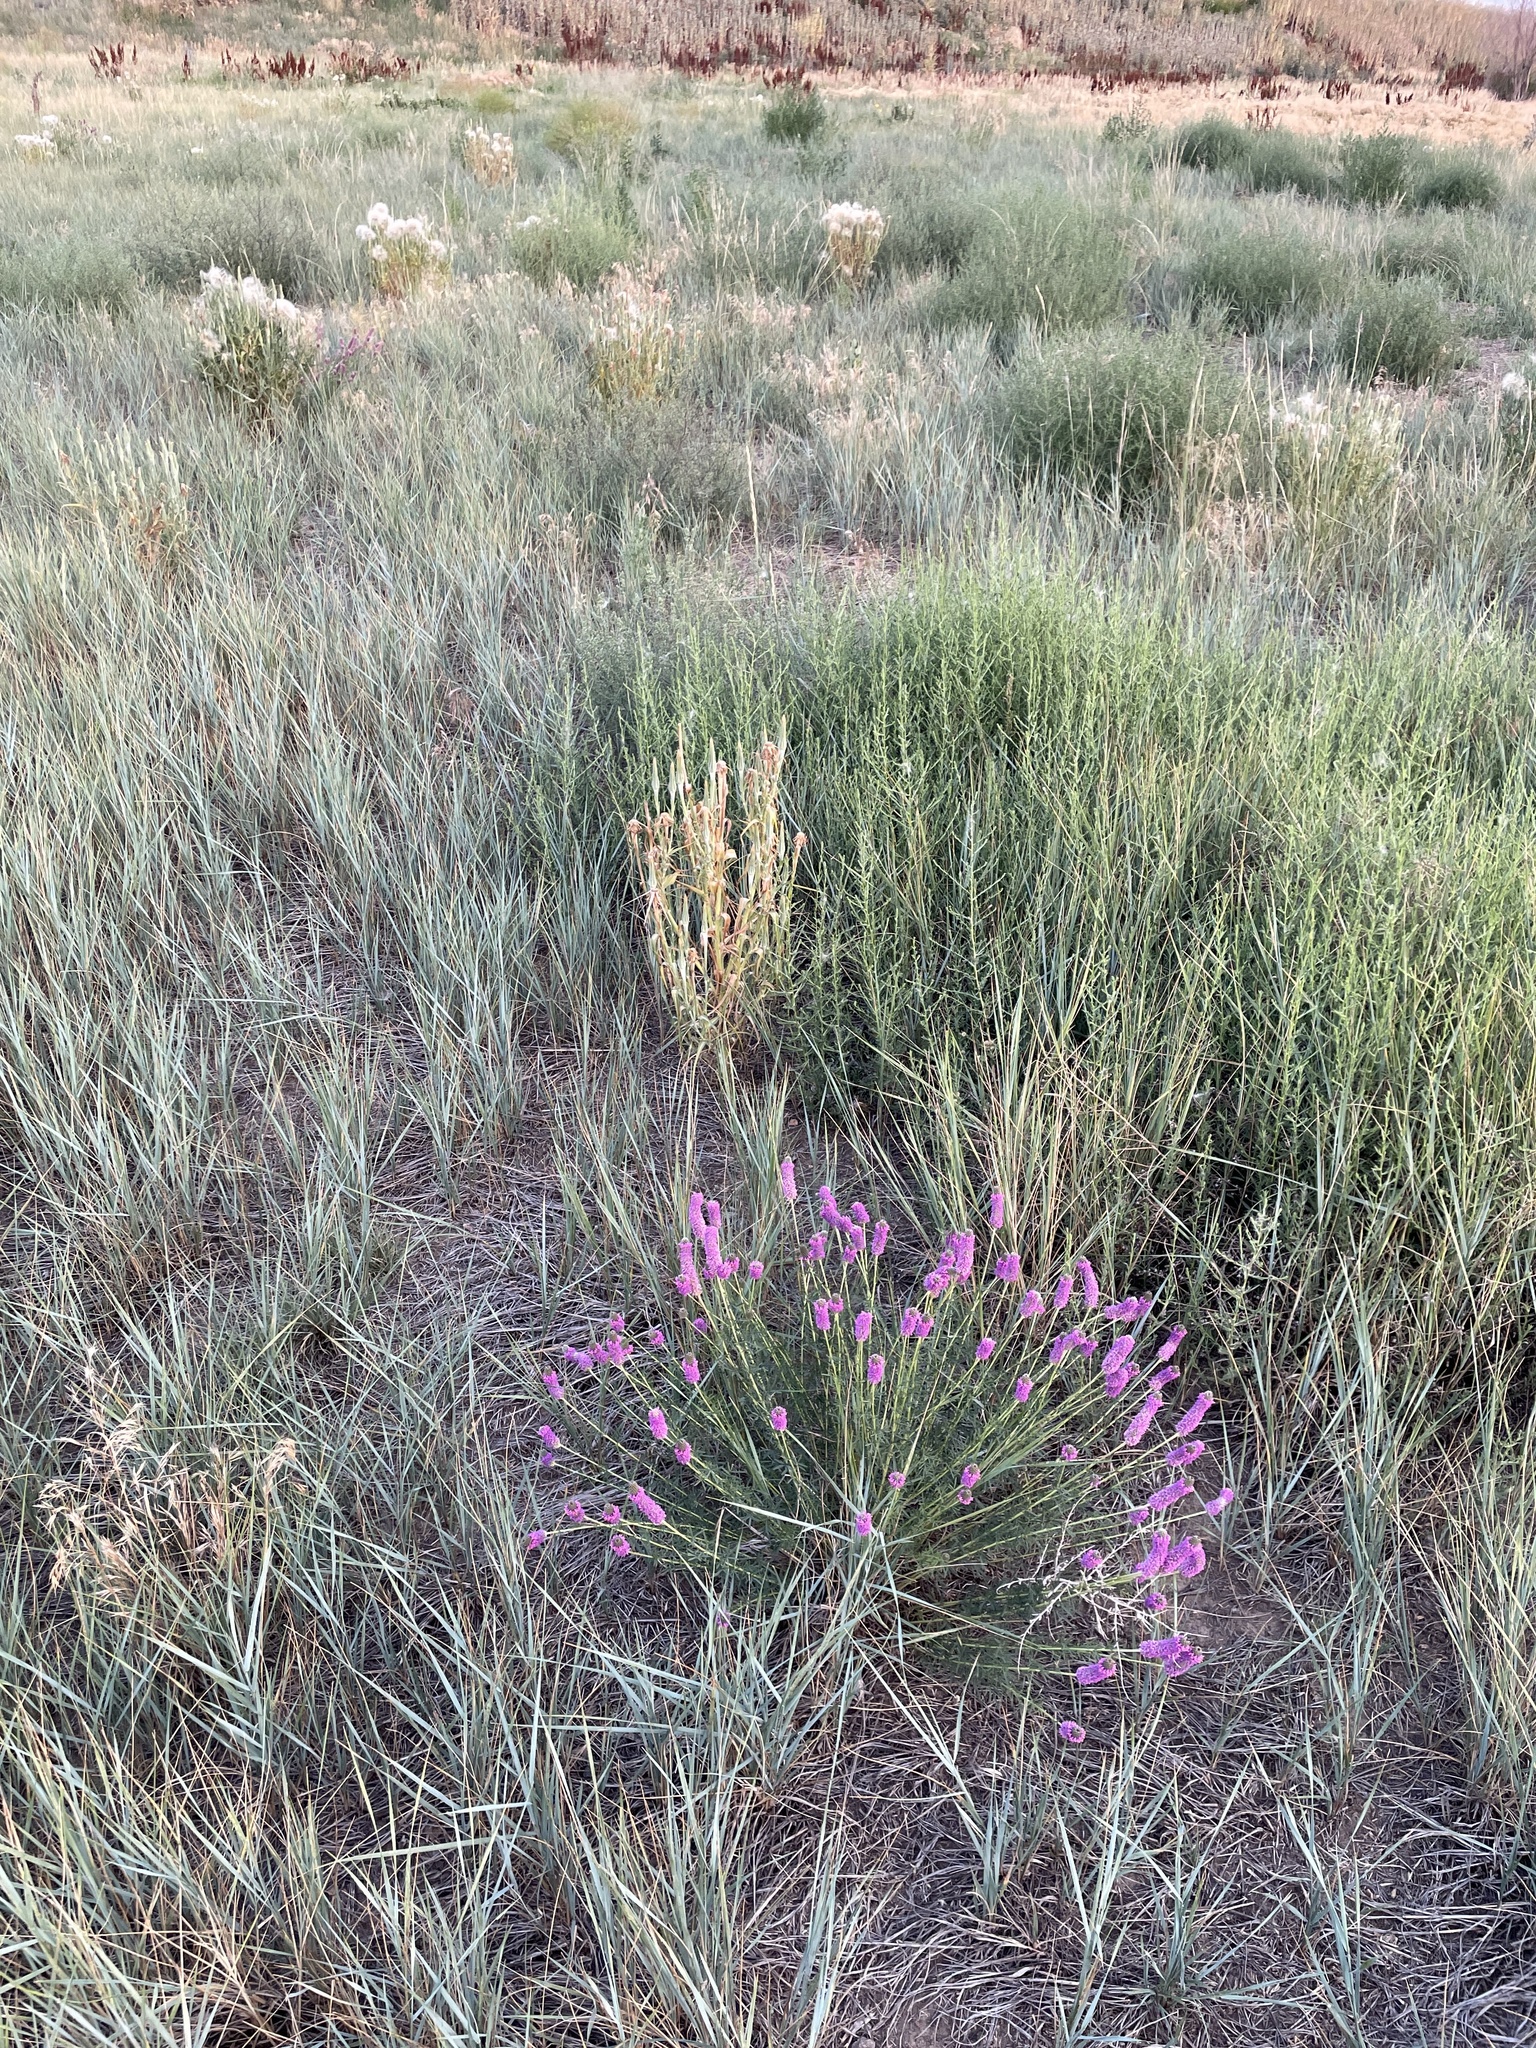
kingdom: Plantae
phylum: Tracheophyta
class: Magnoliopsida
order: Fabales
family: Fabaceae
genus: Dalea
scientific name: Dalea purpurea
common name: Purple prairie-clover
